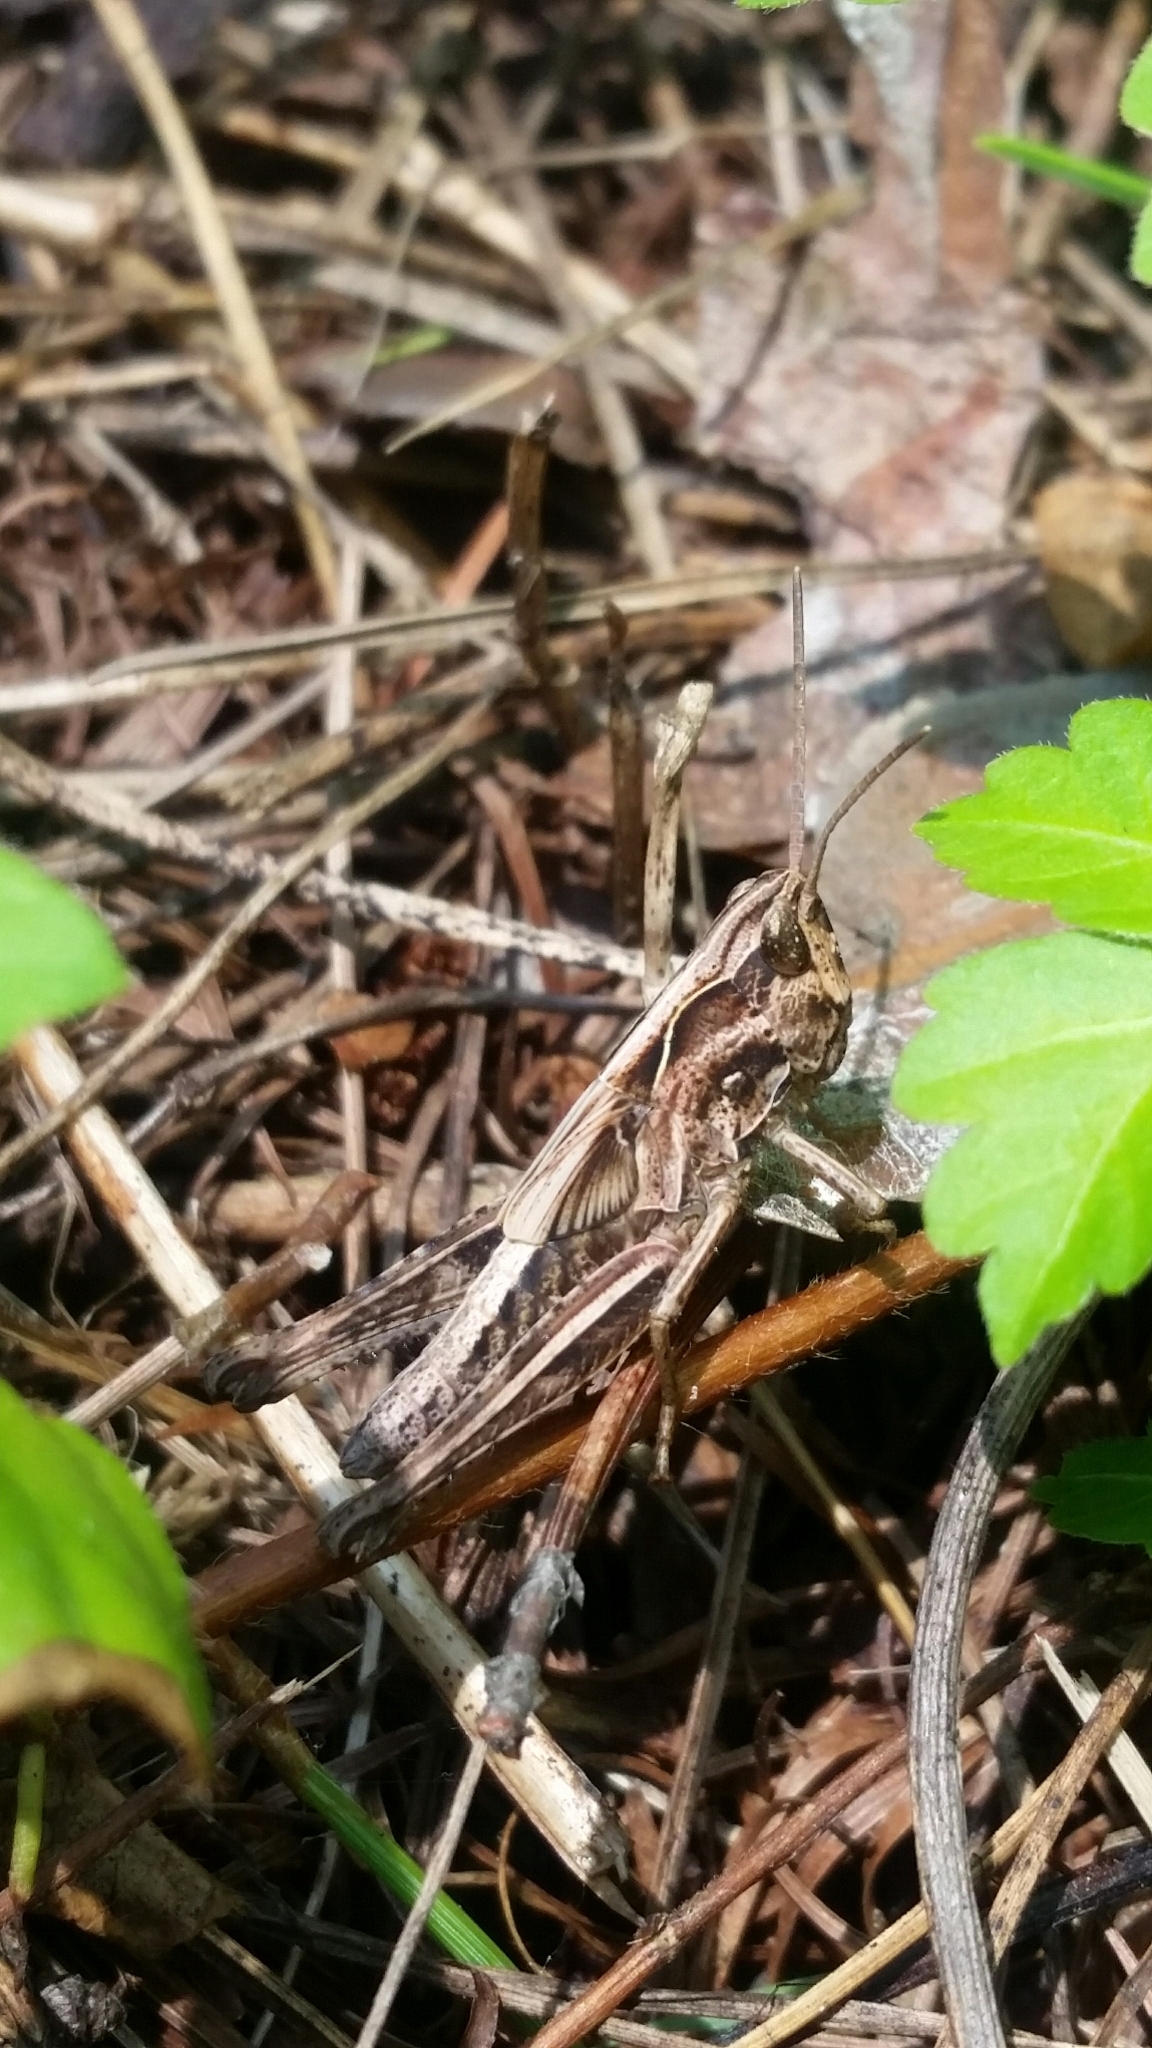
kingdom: Animalia
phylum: Arthropoda
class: Insecta
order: Orthoptera
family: Acrididae
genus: Chorthippus
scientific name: Chorthippus maritimus
